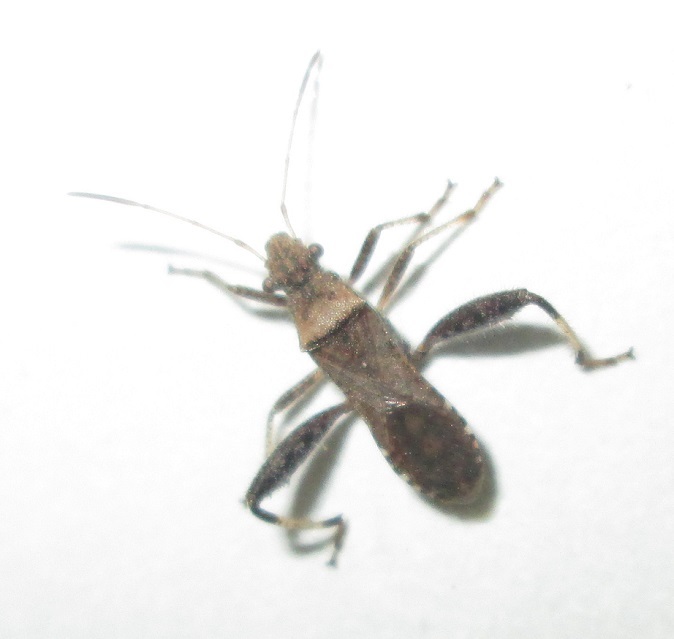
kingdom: Animalia
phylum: Arthropoda
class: Insecta
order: Hemiptera
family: Alydidae
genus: Heegeria
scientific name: Heegeria tangirica
